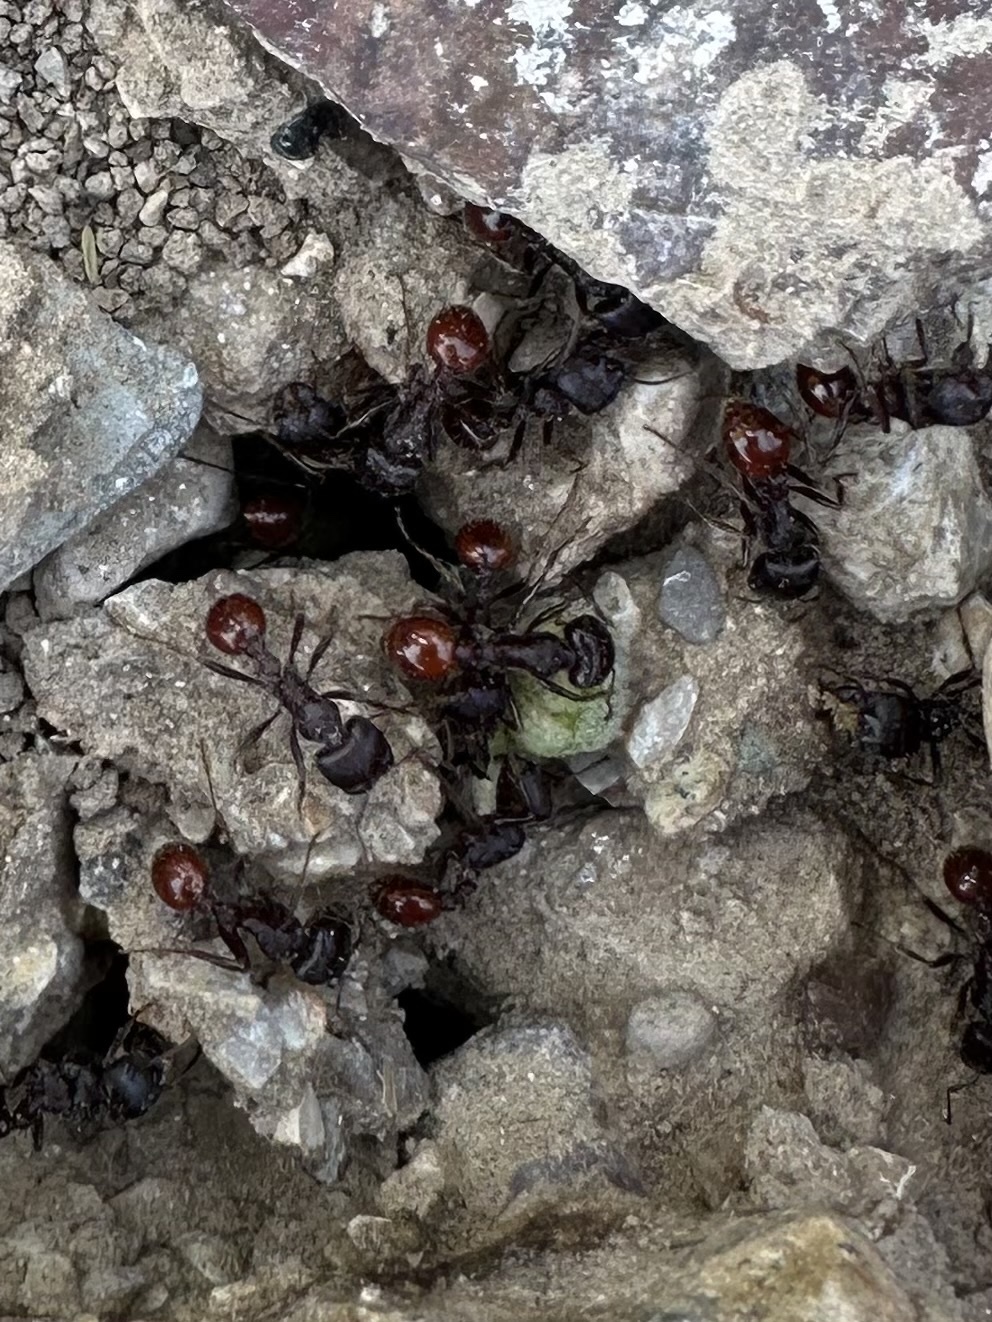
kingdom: Animalia
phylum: Arthropoda
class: Insecta
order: Hymenoptera
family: Formicidae
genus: Pogonomyrmex
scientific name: Pogonomyrmex rugosus
